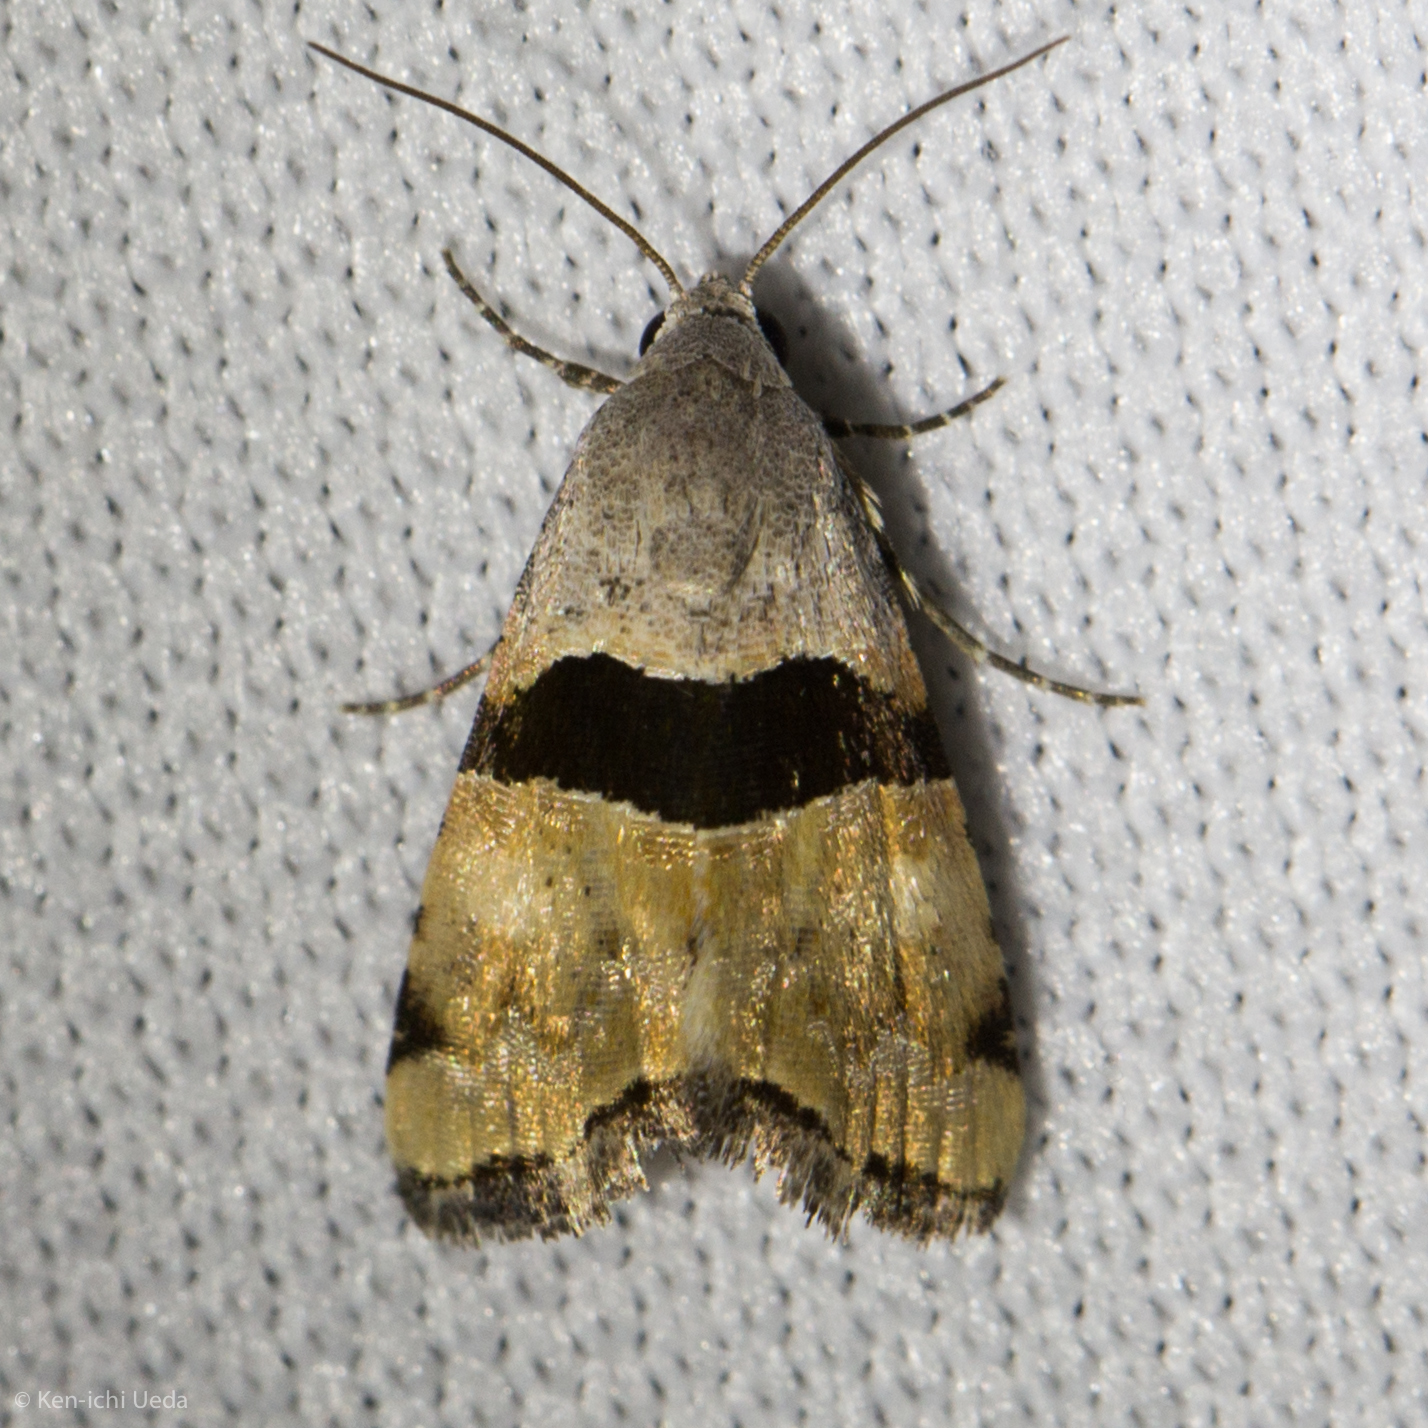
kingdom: Animalia
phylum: Arthropoda
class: Insecta
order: Lepidoptera
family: Noctuidae
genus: Cobubatha
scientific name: Cobubatha lixiva
